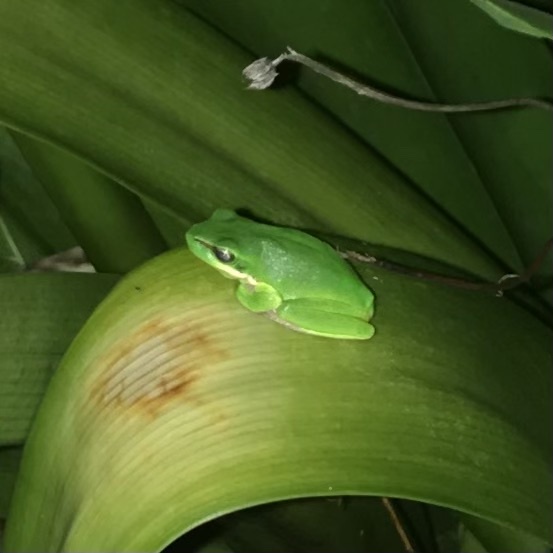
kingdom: Animalia
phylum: Chordata
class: Amphibia
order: Anura
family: Pelodryadidae
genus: Litoria
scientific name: Litoria fallax
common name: Eastern dwarf treefrog
